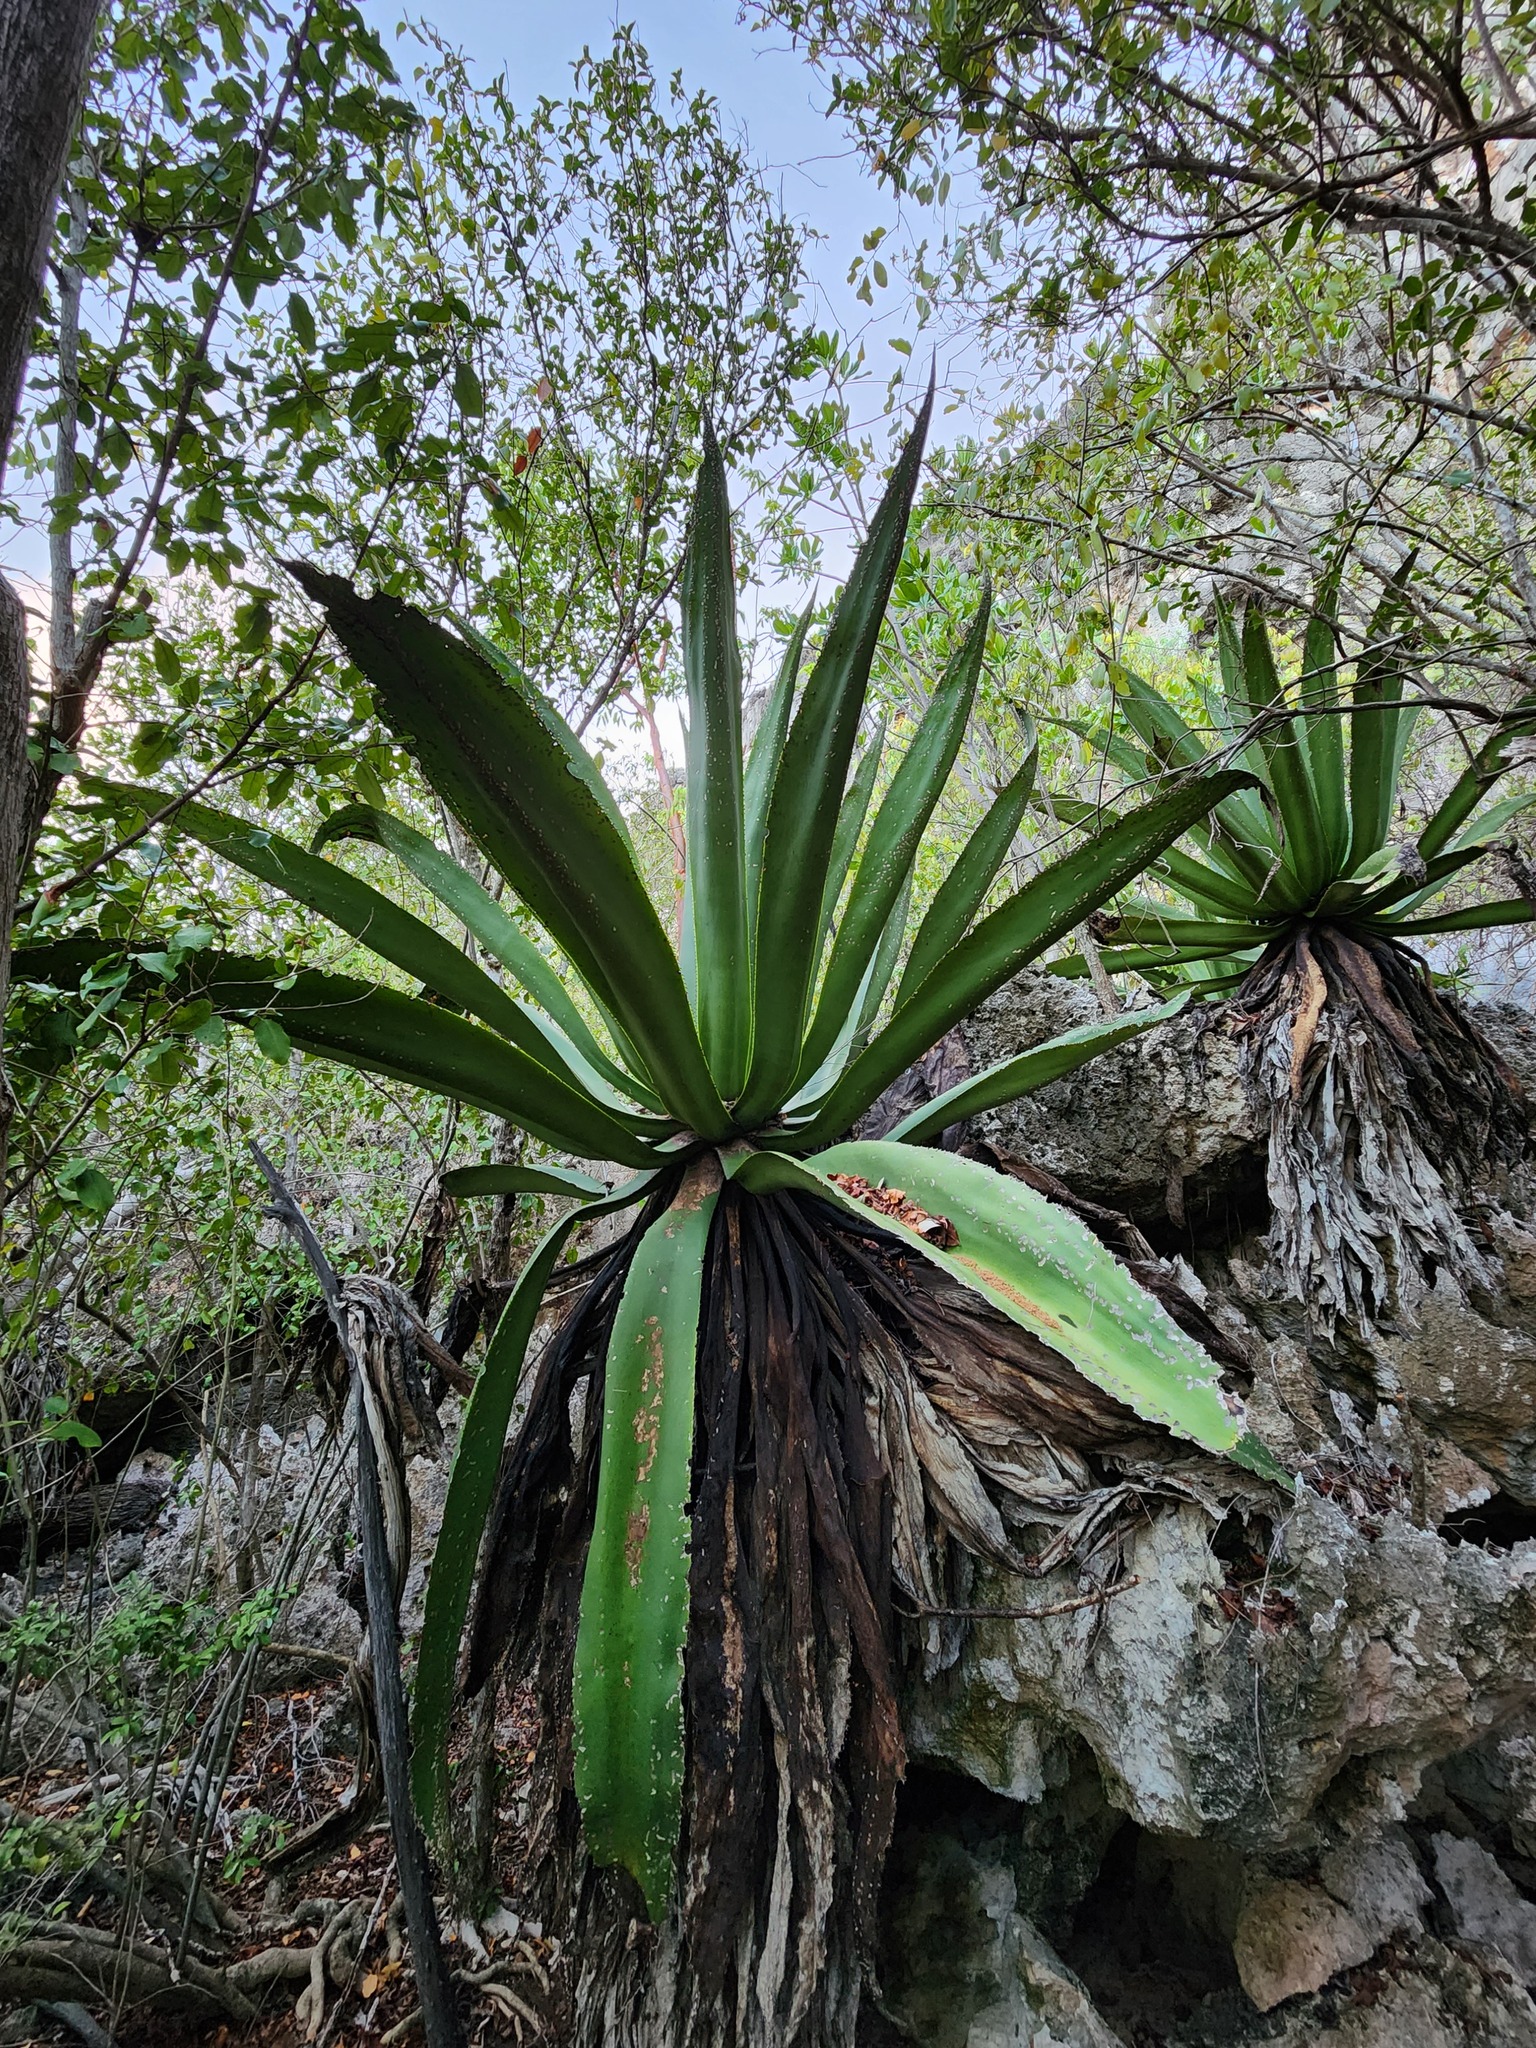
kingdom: Plantae
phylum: Tracheophyta
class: Liliopsida
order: Asparagales
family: Asparagaceae
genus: Agave
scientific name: Agave caymanensis
